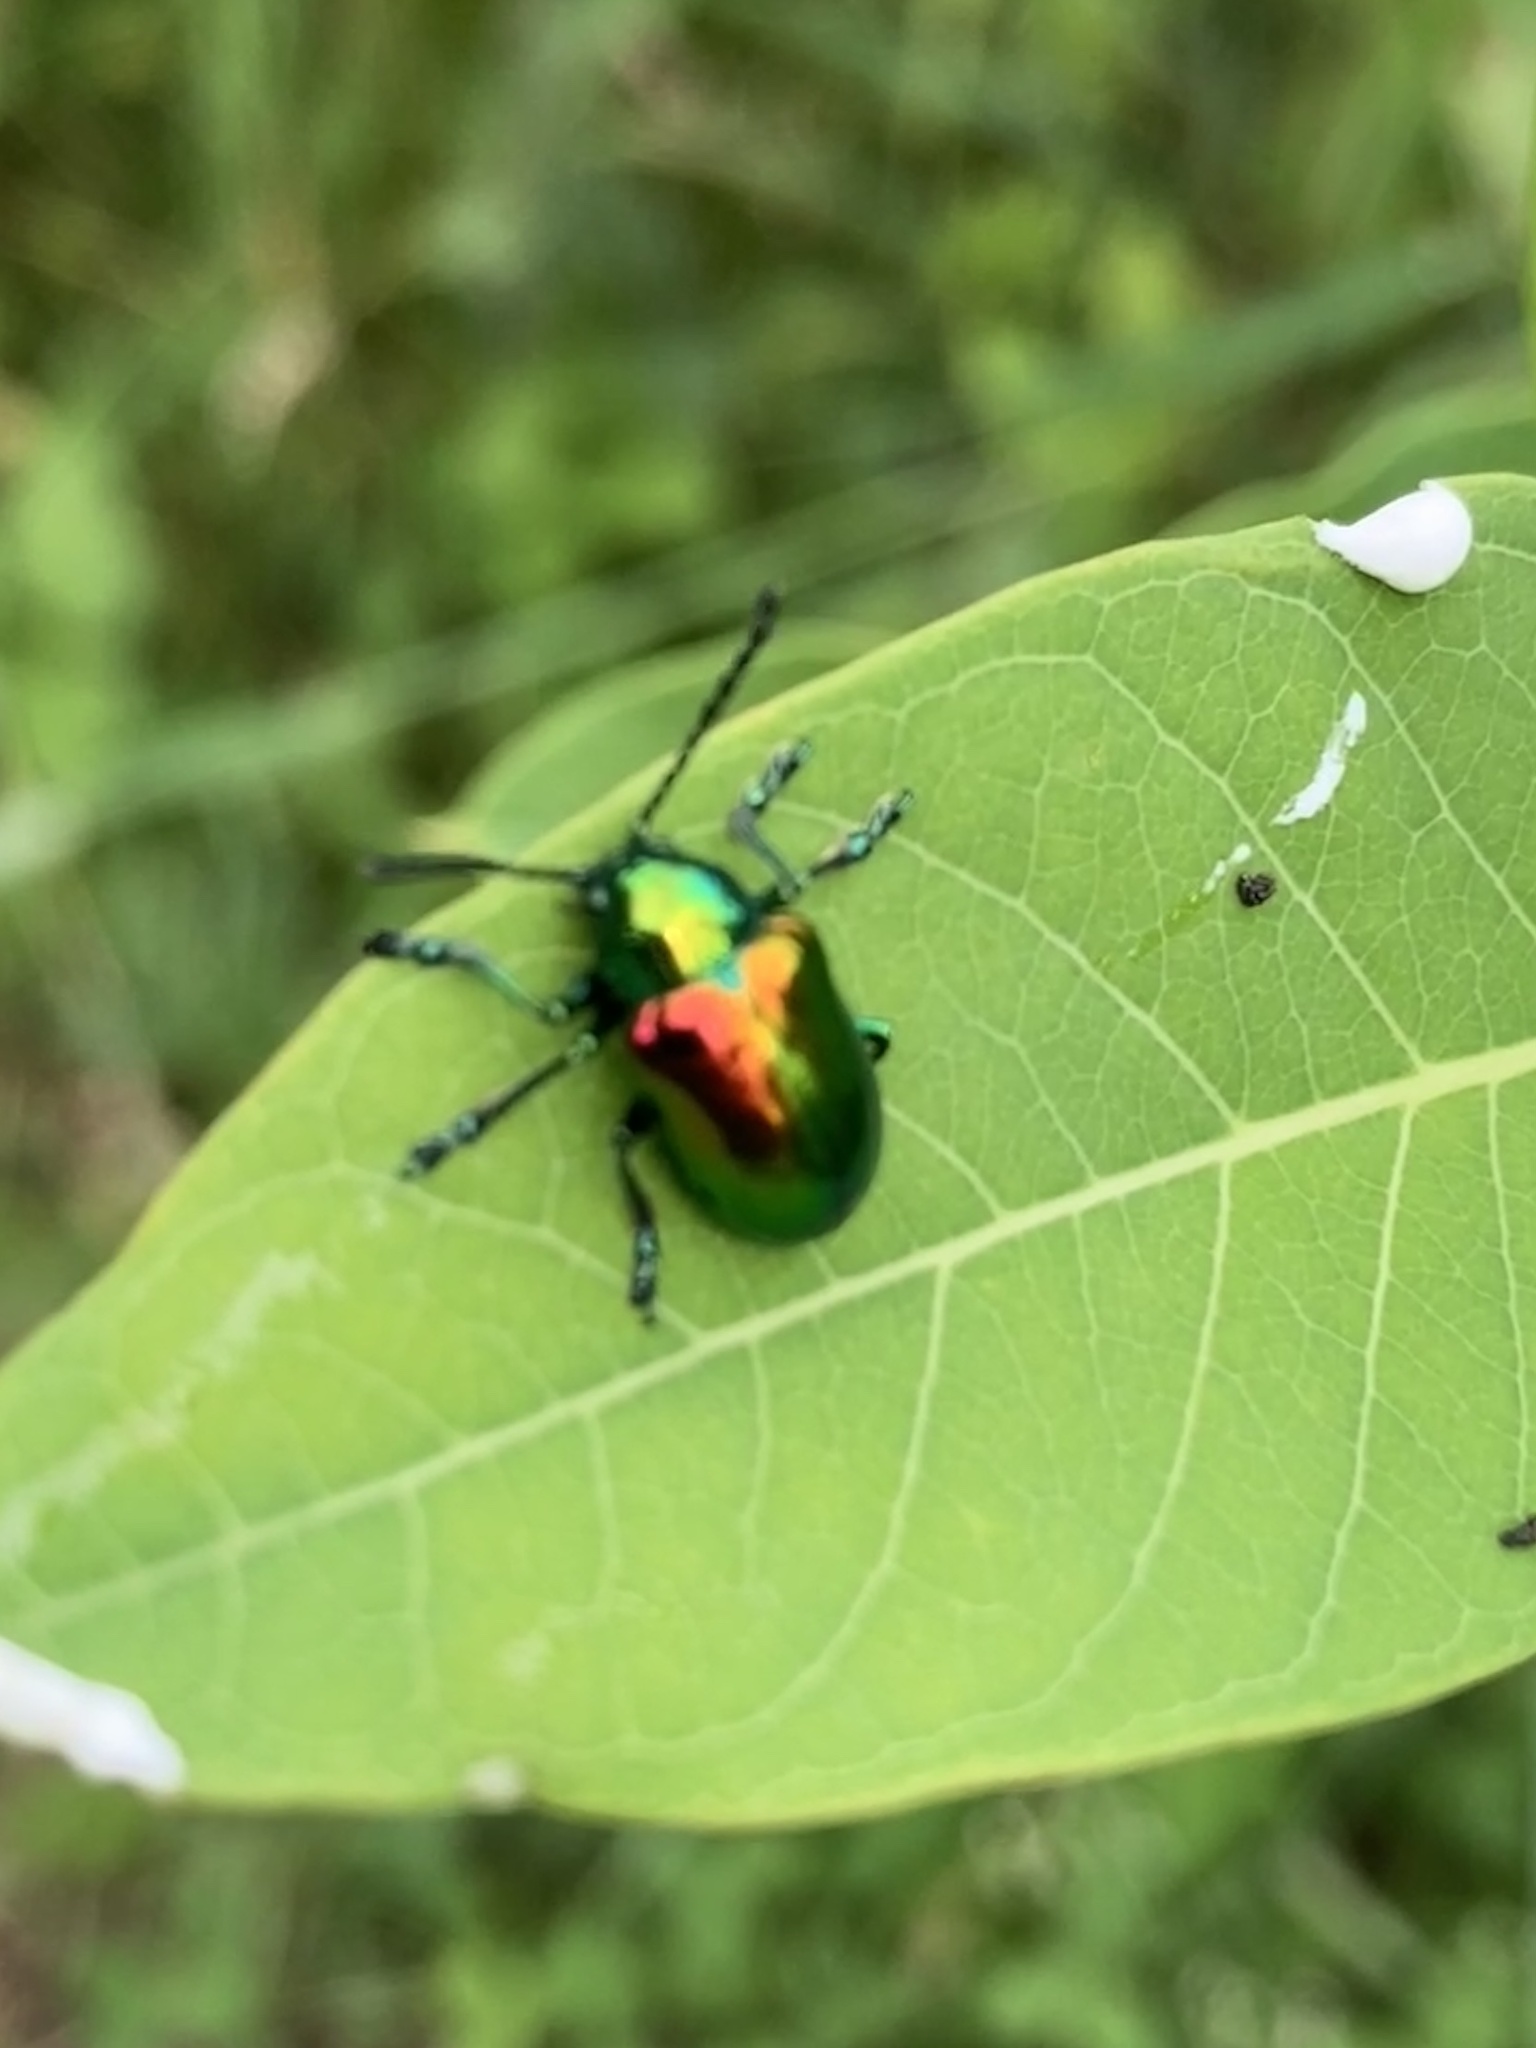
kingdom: Animalia
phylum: Arthropoda
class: Insecta
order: Coleoptera
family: Chrysomelidae
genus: Chrysochus
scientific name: Chrysochus auratus
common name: Dogbane leaf beetle
